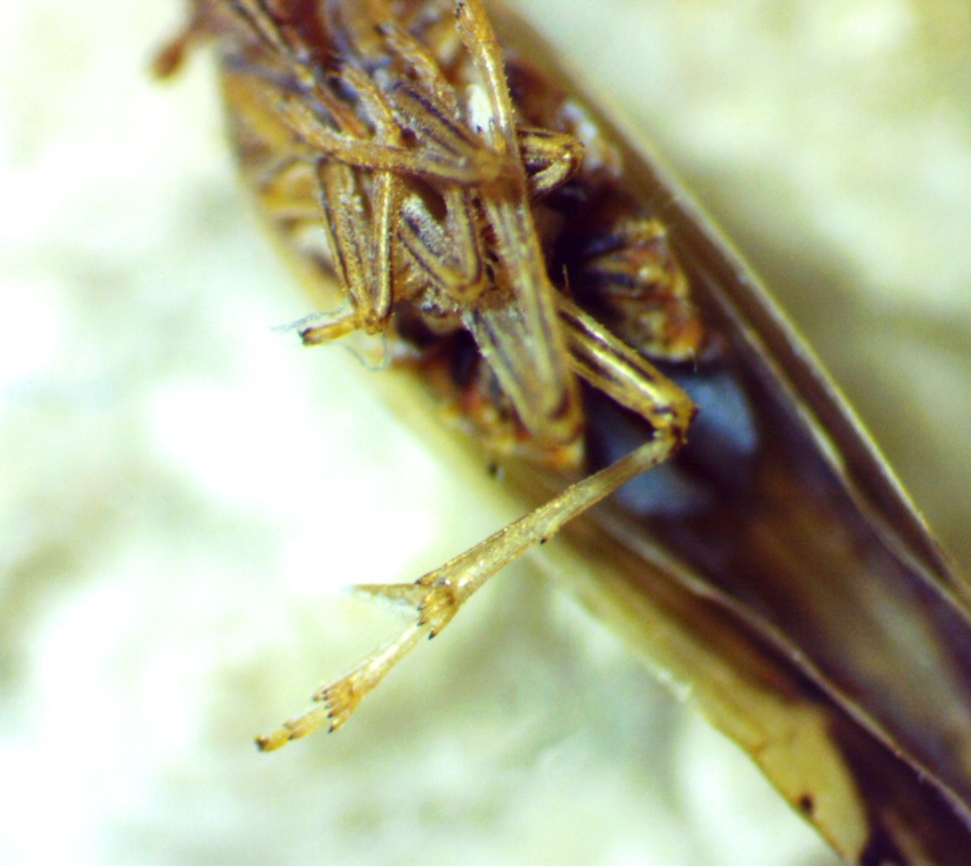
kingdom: Animalia
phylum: Arthropoda
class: Insecta
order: Hemiptera
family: Delphacidae
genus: Stenocranus
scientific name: Stenocranus vittatus
